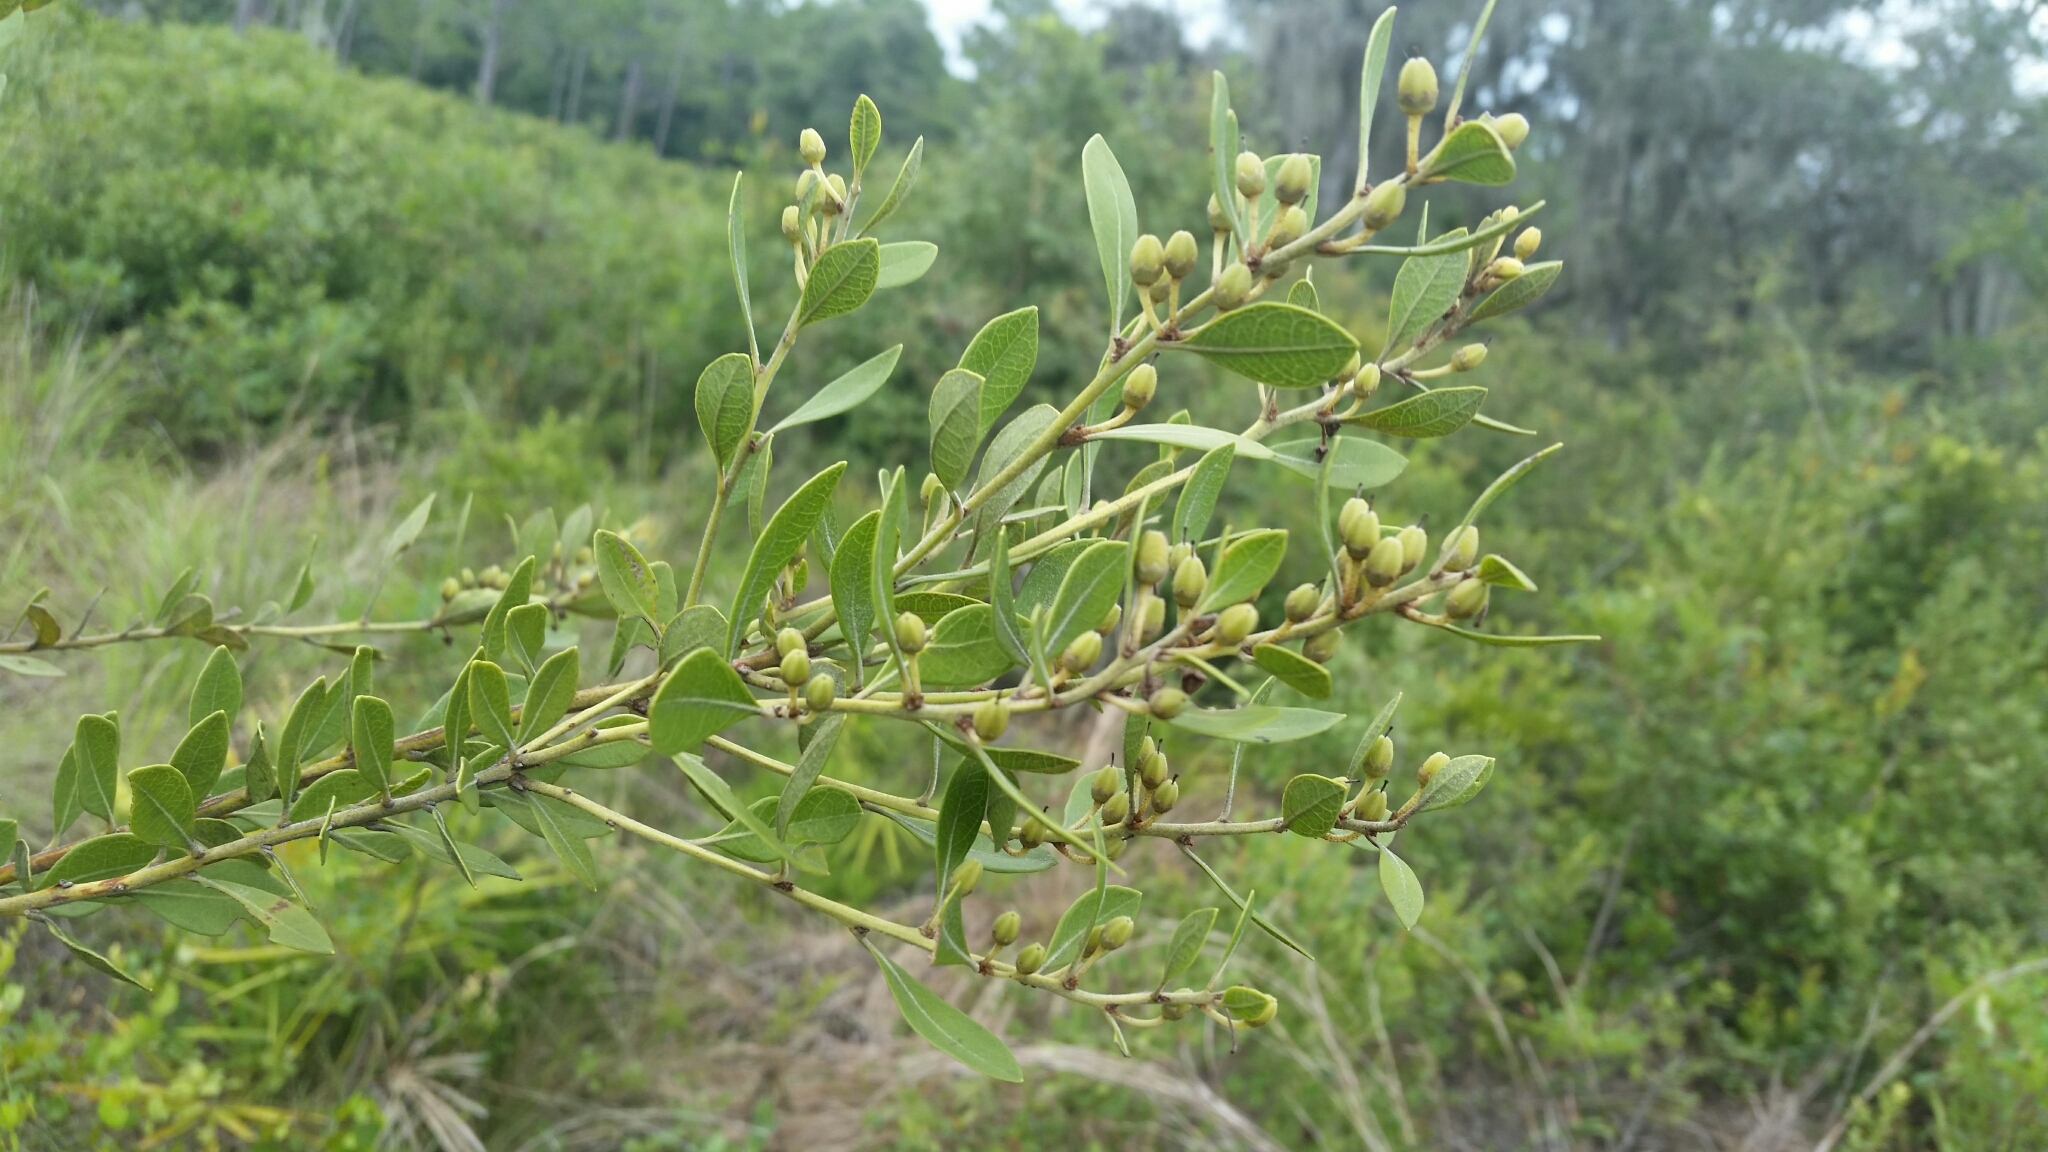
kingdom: Plantae
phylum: Tracheophyta
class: Magnoliopsida
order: Ericales
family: Ericaceae
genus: Lyonia
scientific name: Lyonia fruticosa
